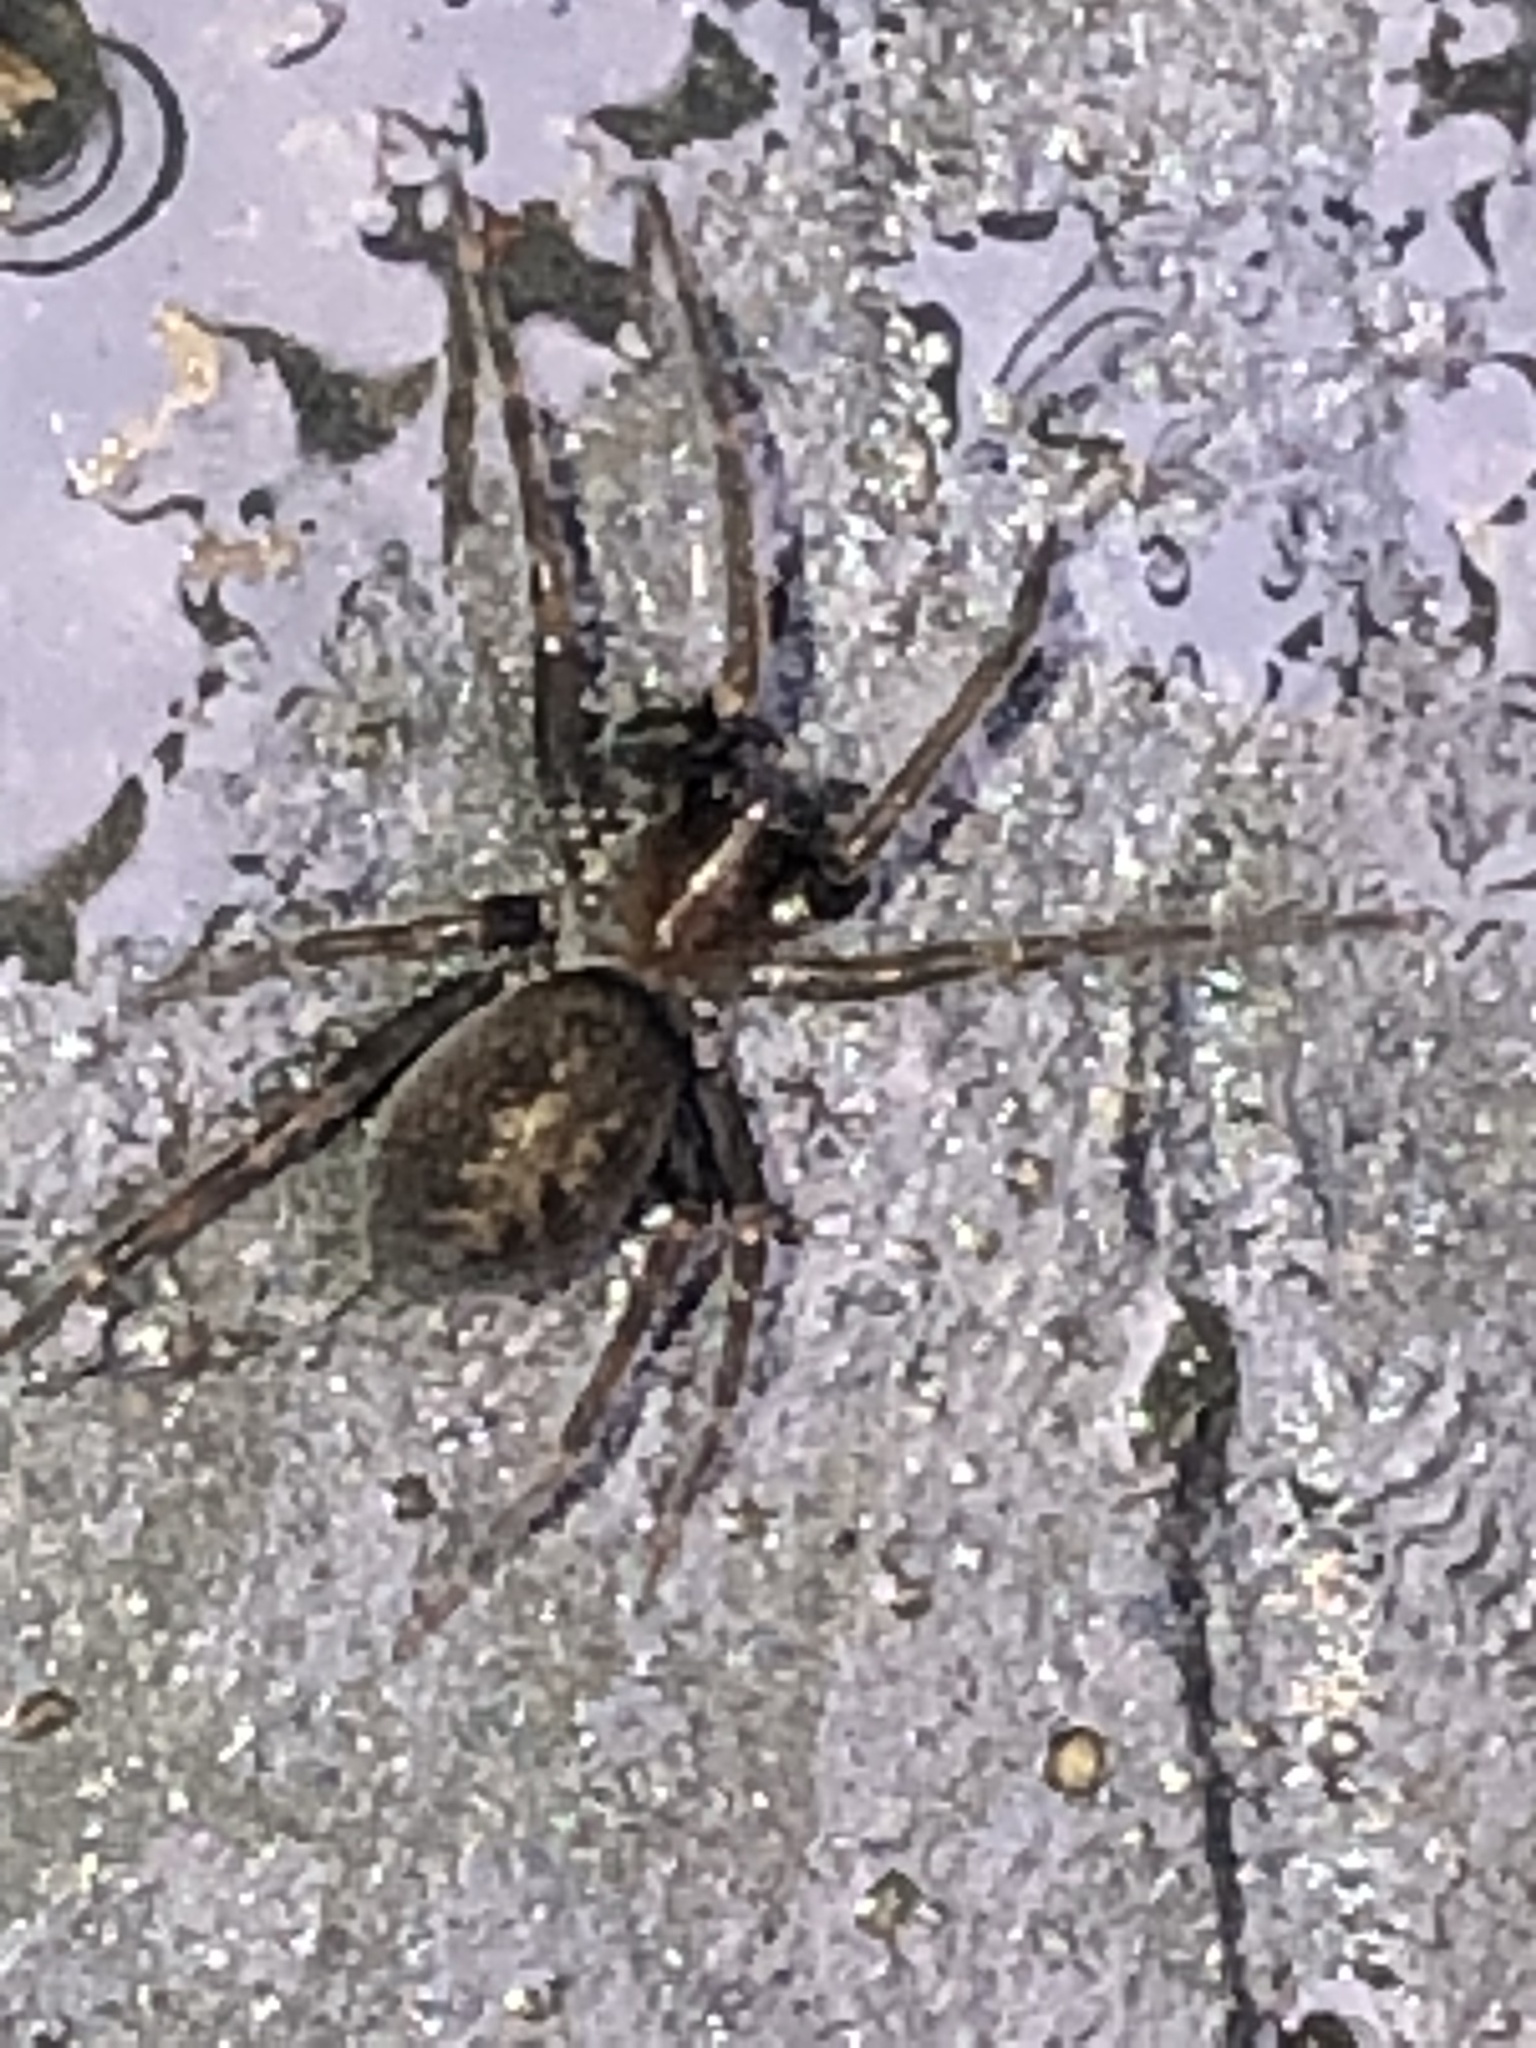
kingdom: Animalia
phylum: Arthropoda
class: Arachnida
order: Araneae
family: Desidae
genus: Metaltella
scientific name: Metaltella simoni
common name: Cribellate spider
